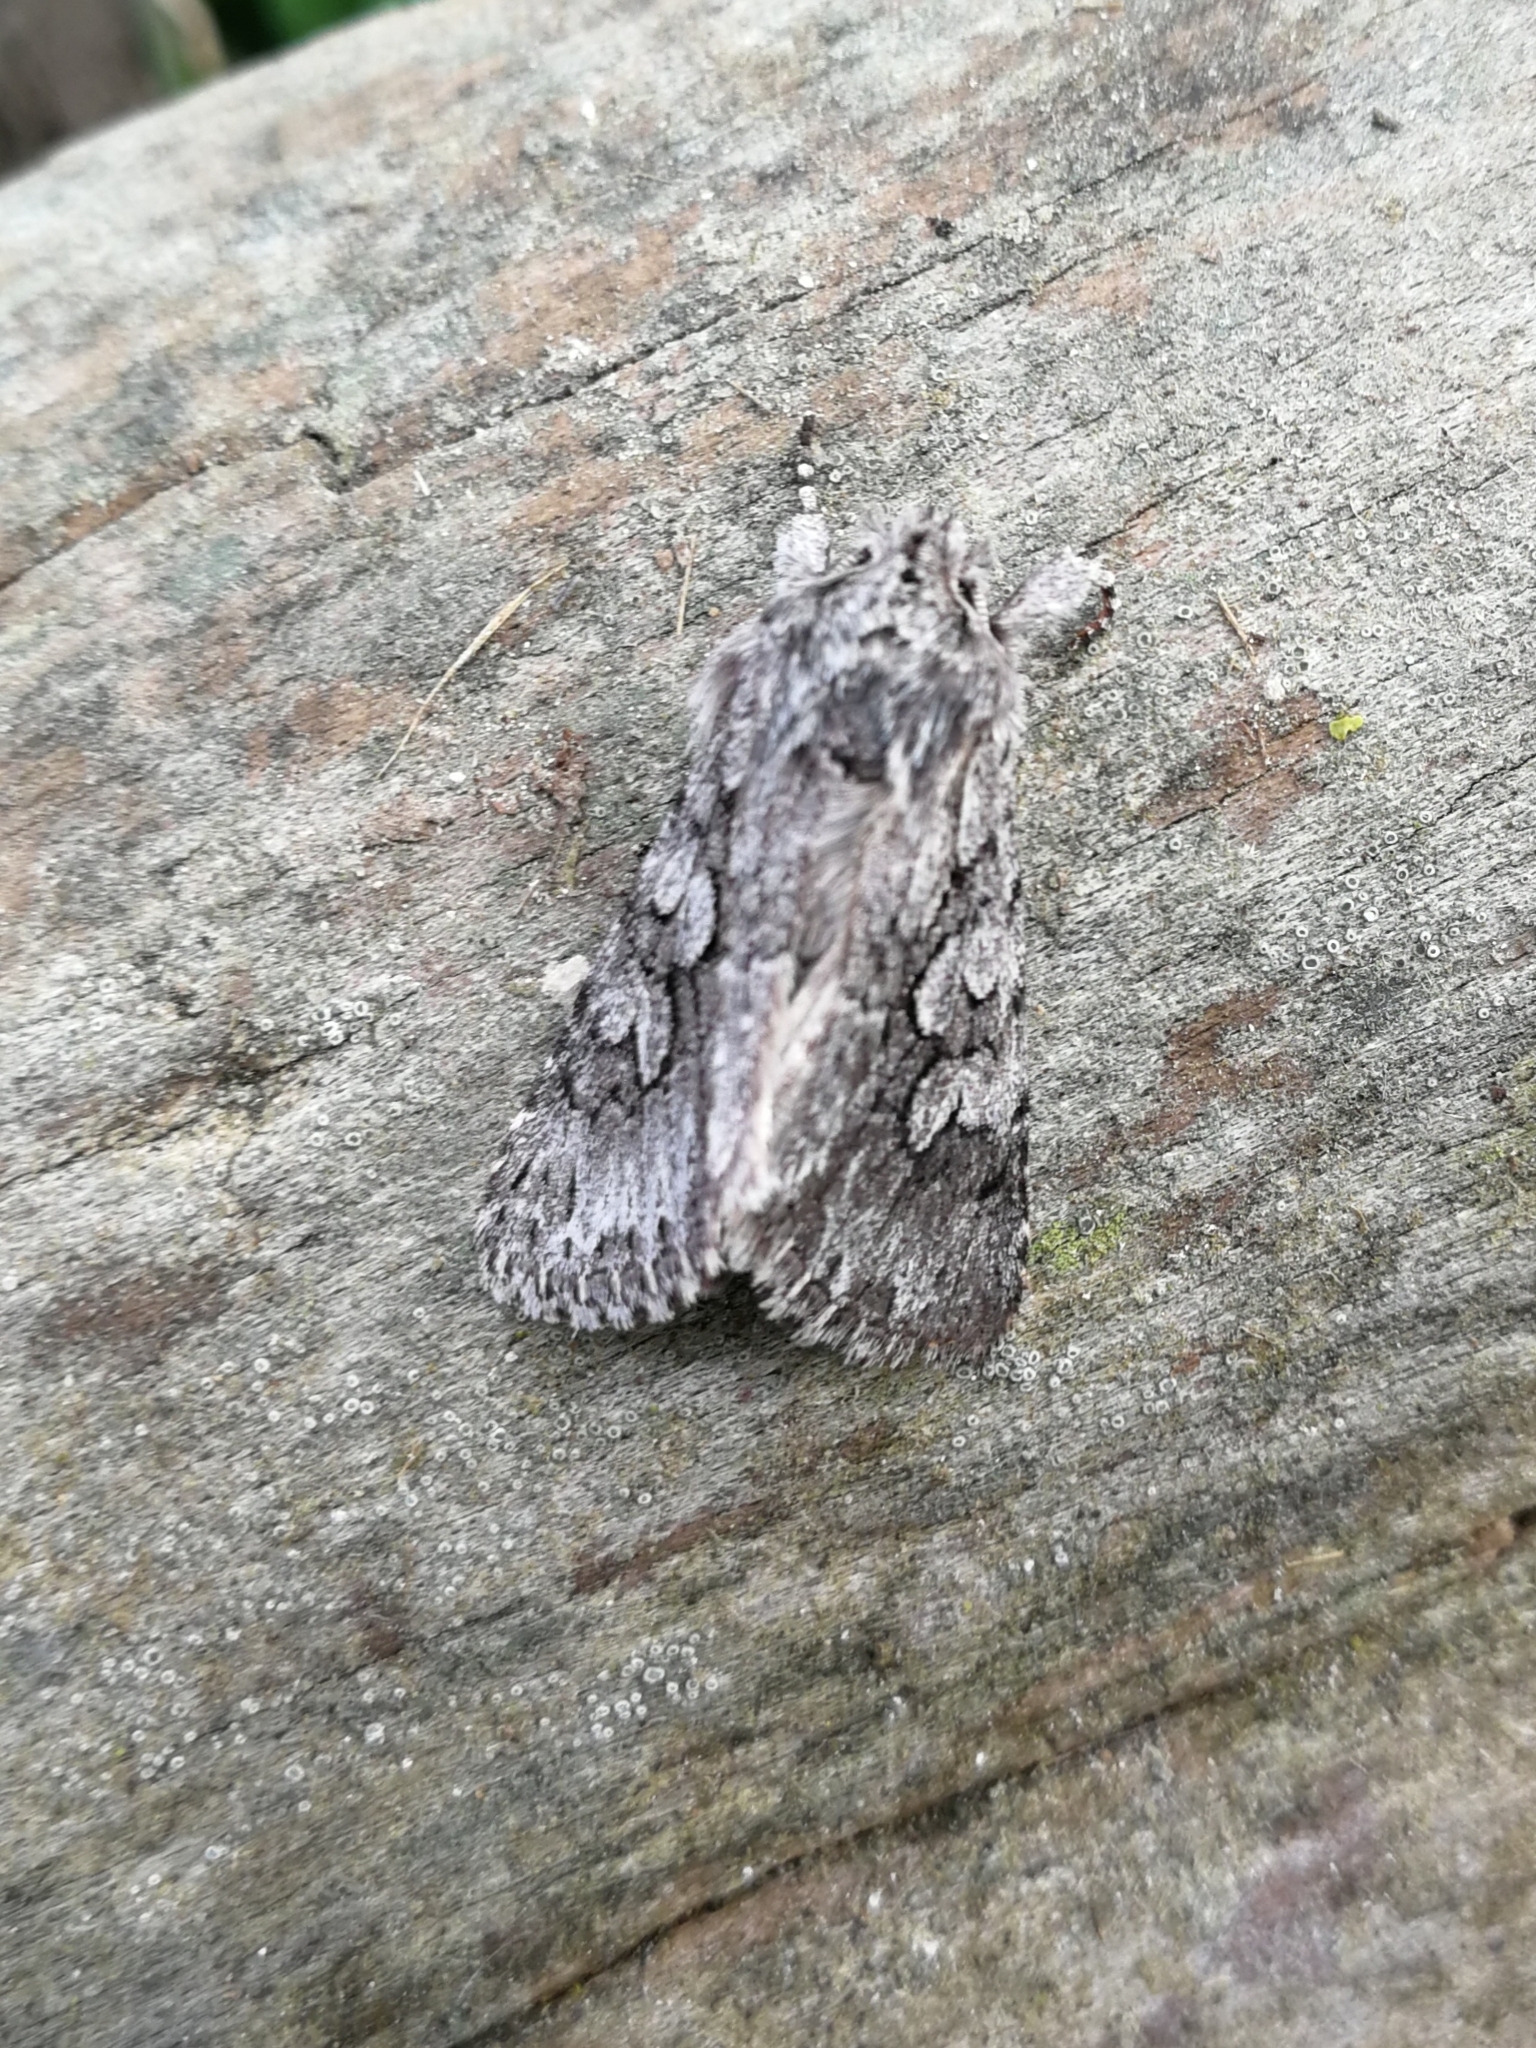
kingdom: Animalia
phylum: Arthropoda
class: Insecta
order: Lepidoptera
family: Noctuidae
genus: Xylocampa
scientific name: Xylocampa areola
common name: Early grey
